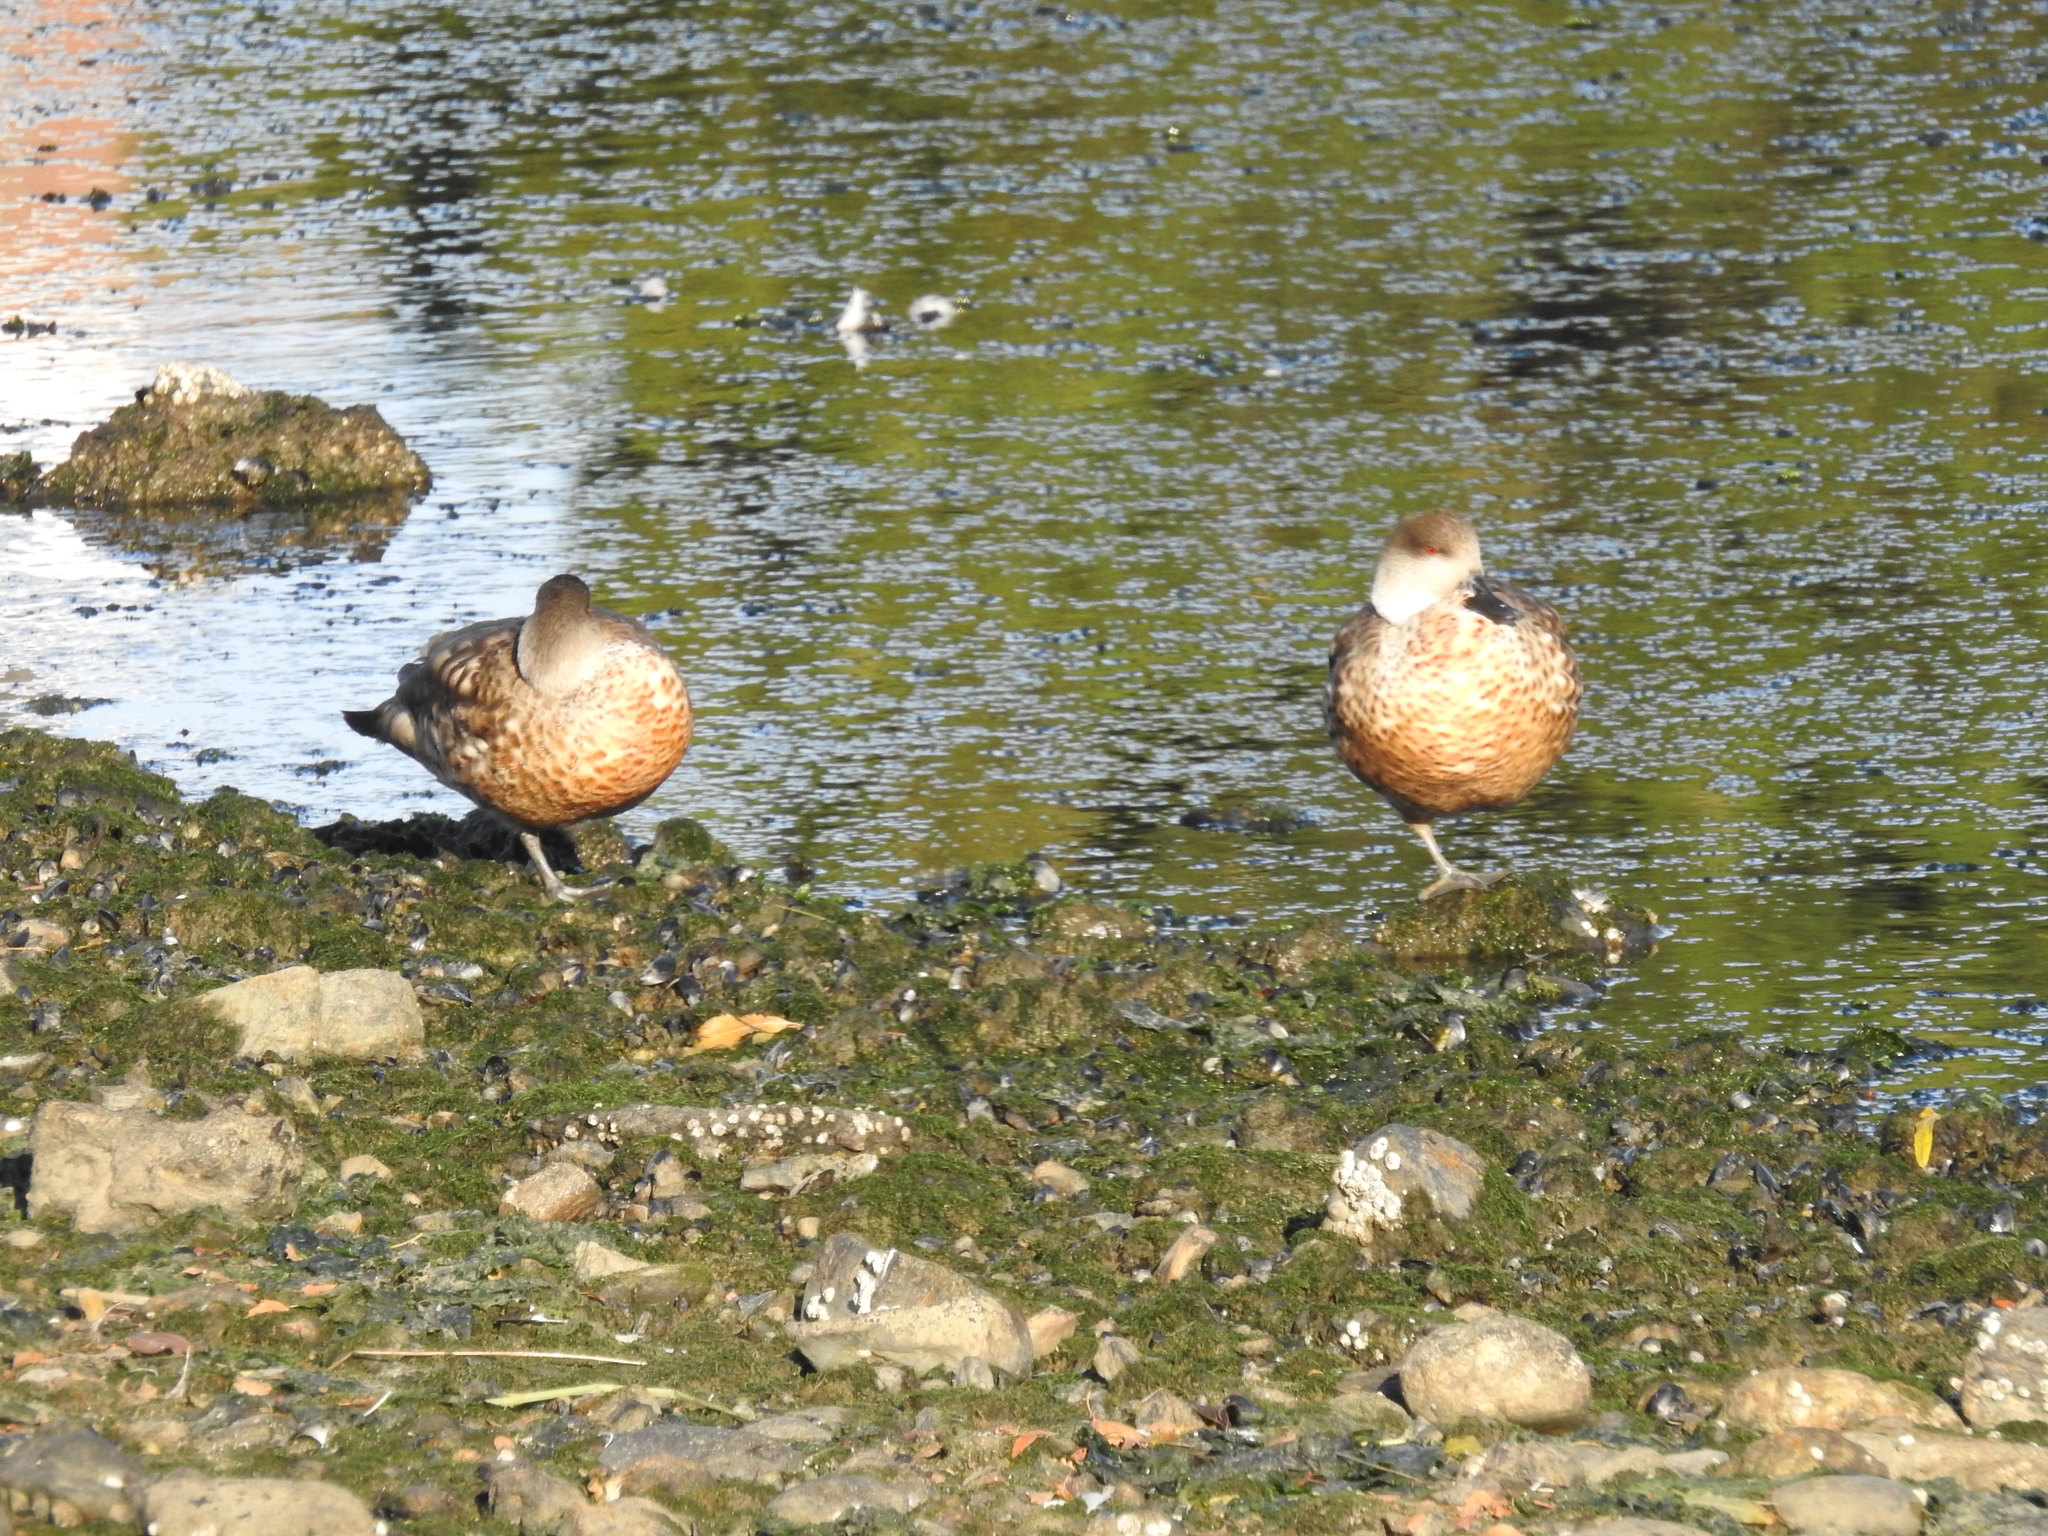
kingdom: Animalia
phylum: Chordata
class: Aves
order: Anseriformes
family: Anatidae
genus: Lophonetta
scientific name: Lophonetta specularioides
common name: Crested duck
